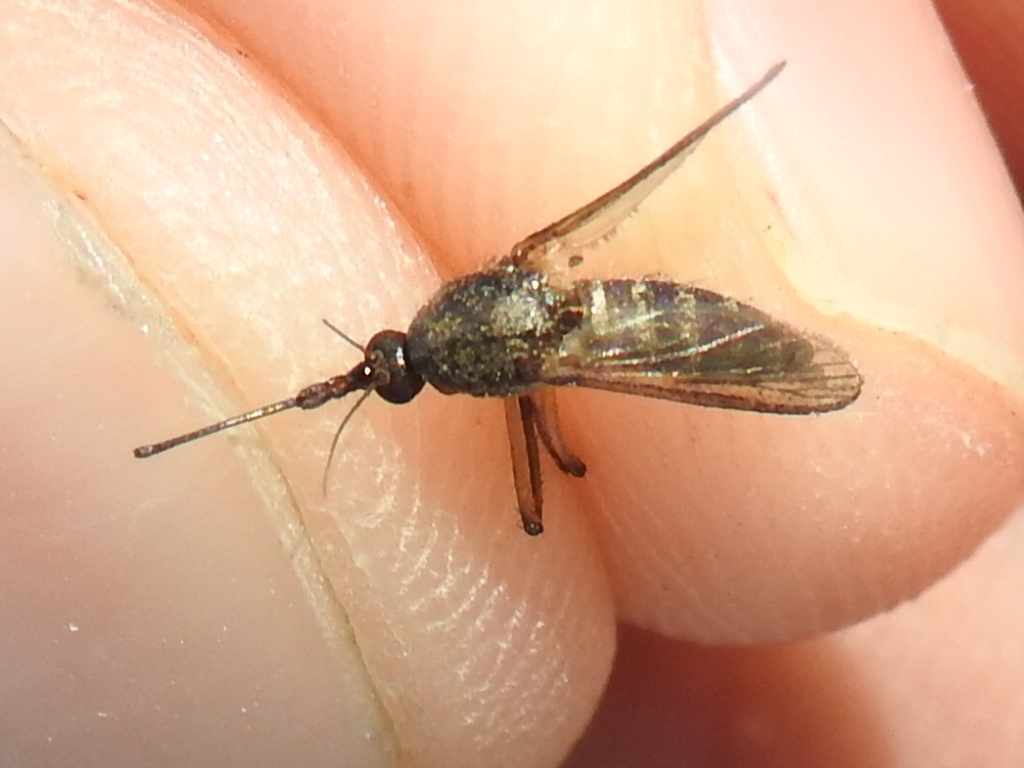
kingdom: Animalia
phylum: Arthropoda
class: Insecta
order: Diptera
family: Culicidae
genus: Psorophora
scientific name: Psorophora cyanescens
